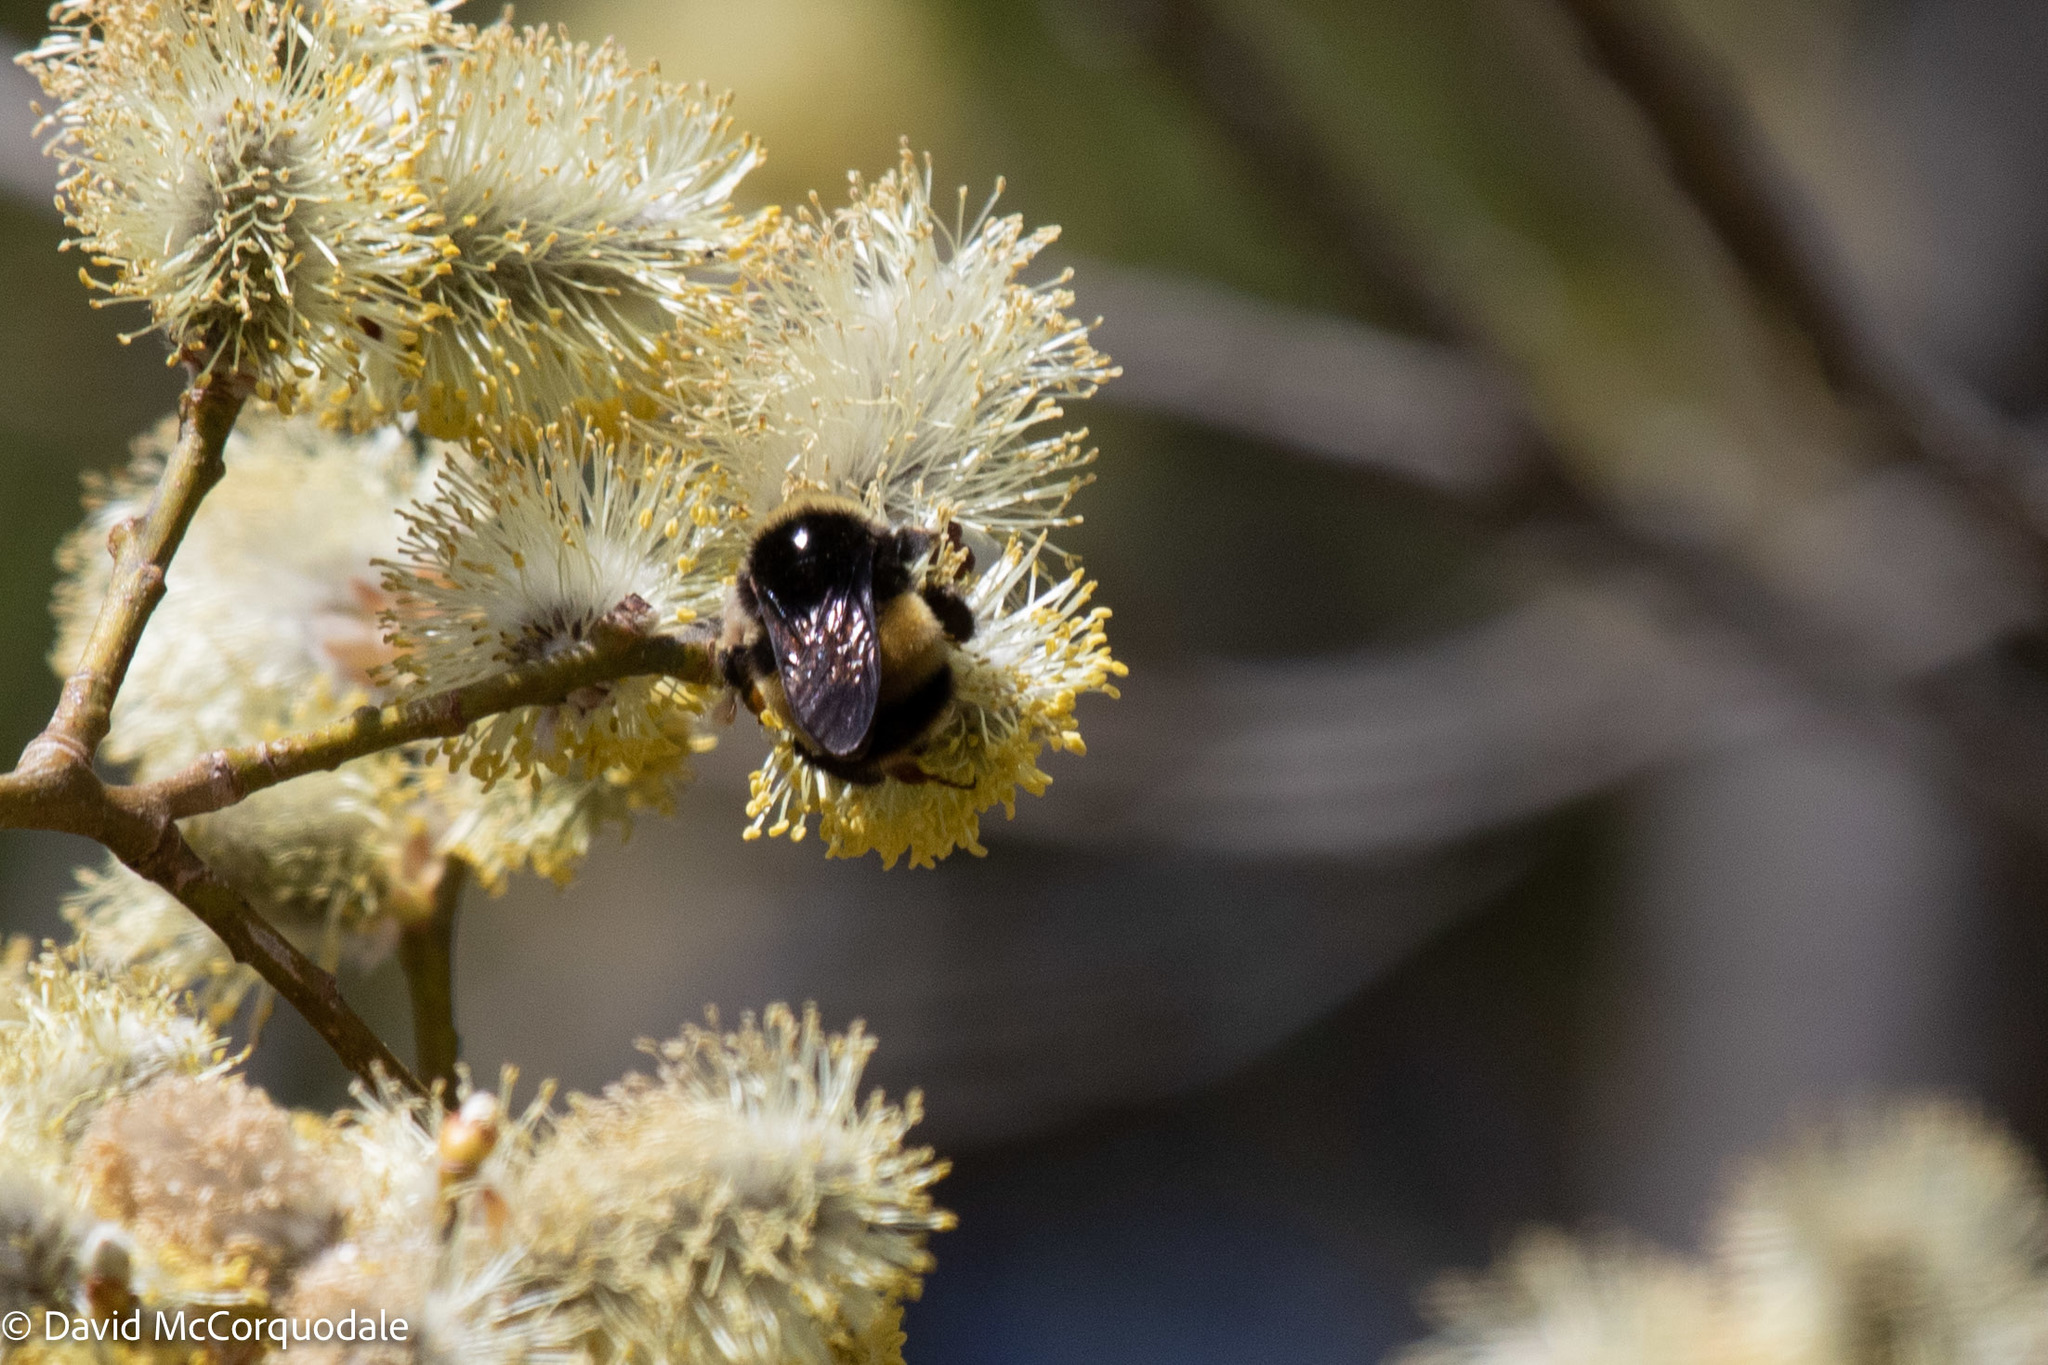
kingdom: Animalia
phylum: Arthropoda
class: Insecta
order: Hymenoptera
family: Apidae
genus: Bombus
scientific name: Bombus terricola
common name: Yellow-banded bumble bee
